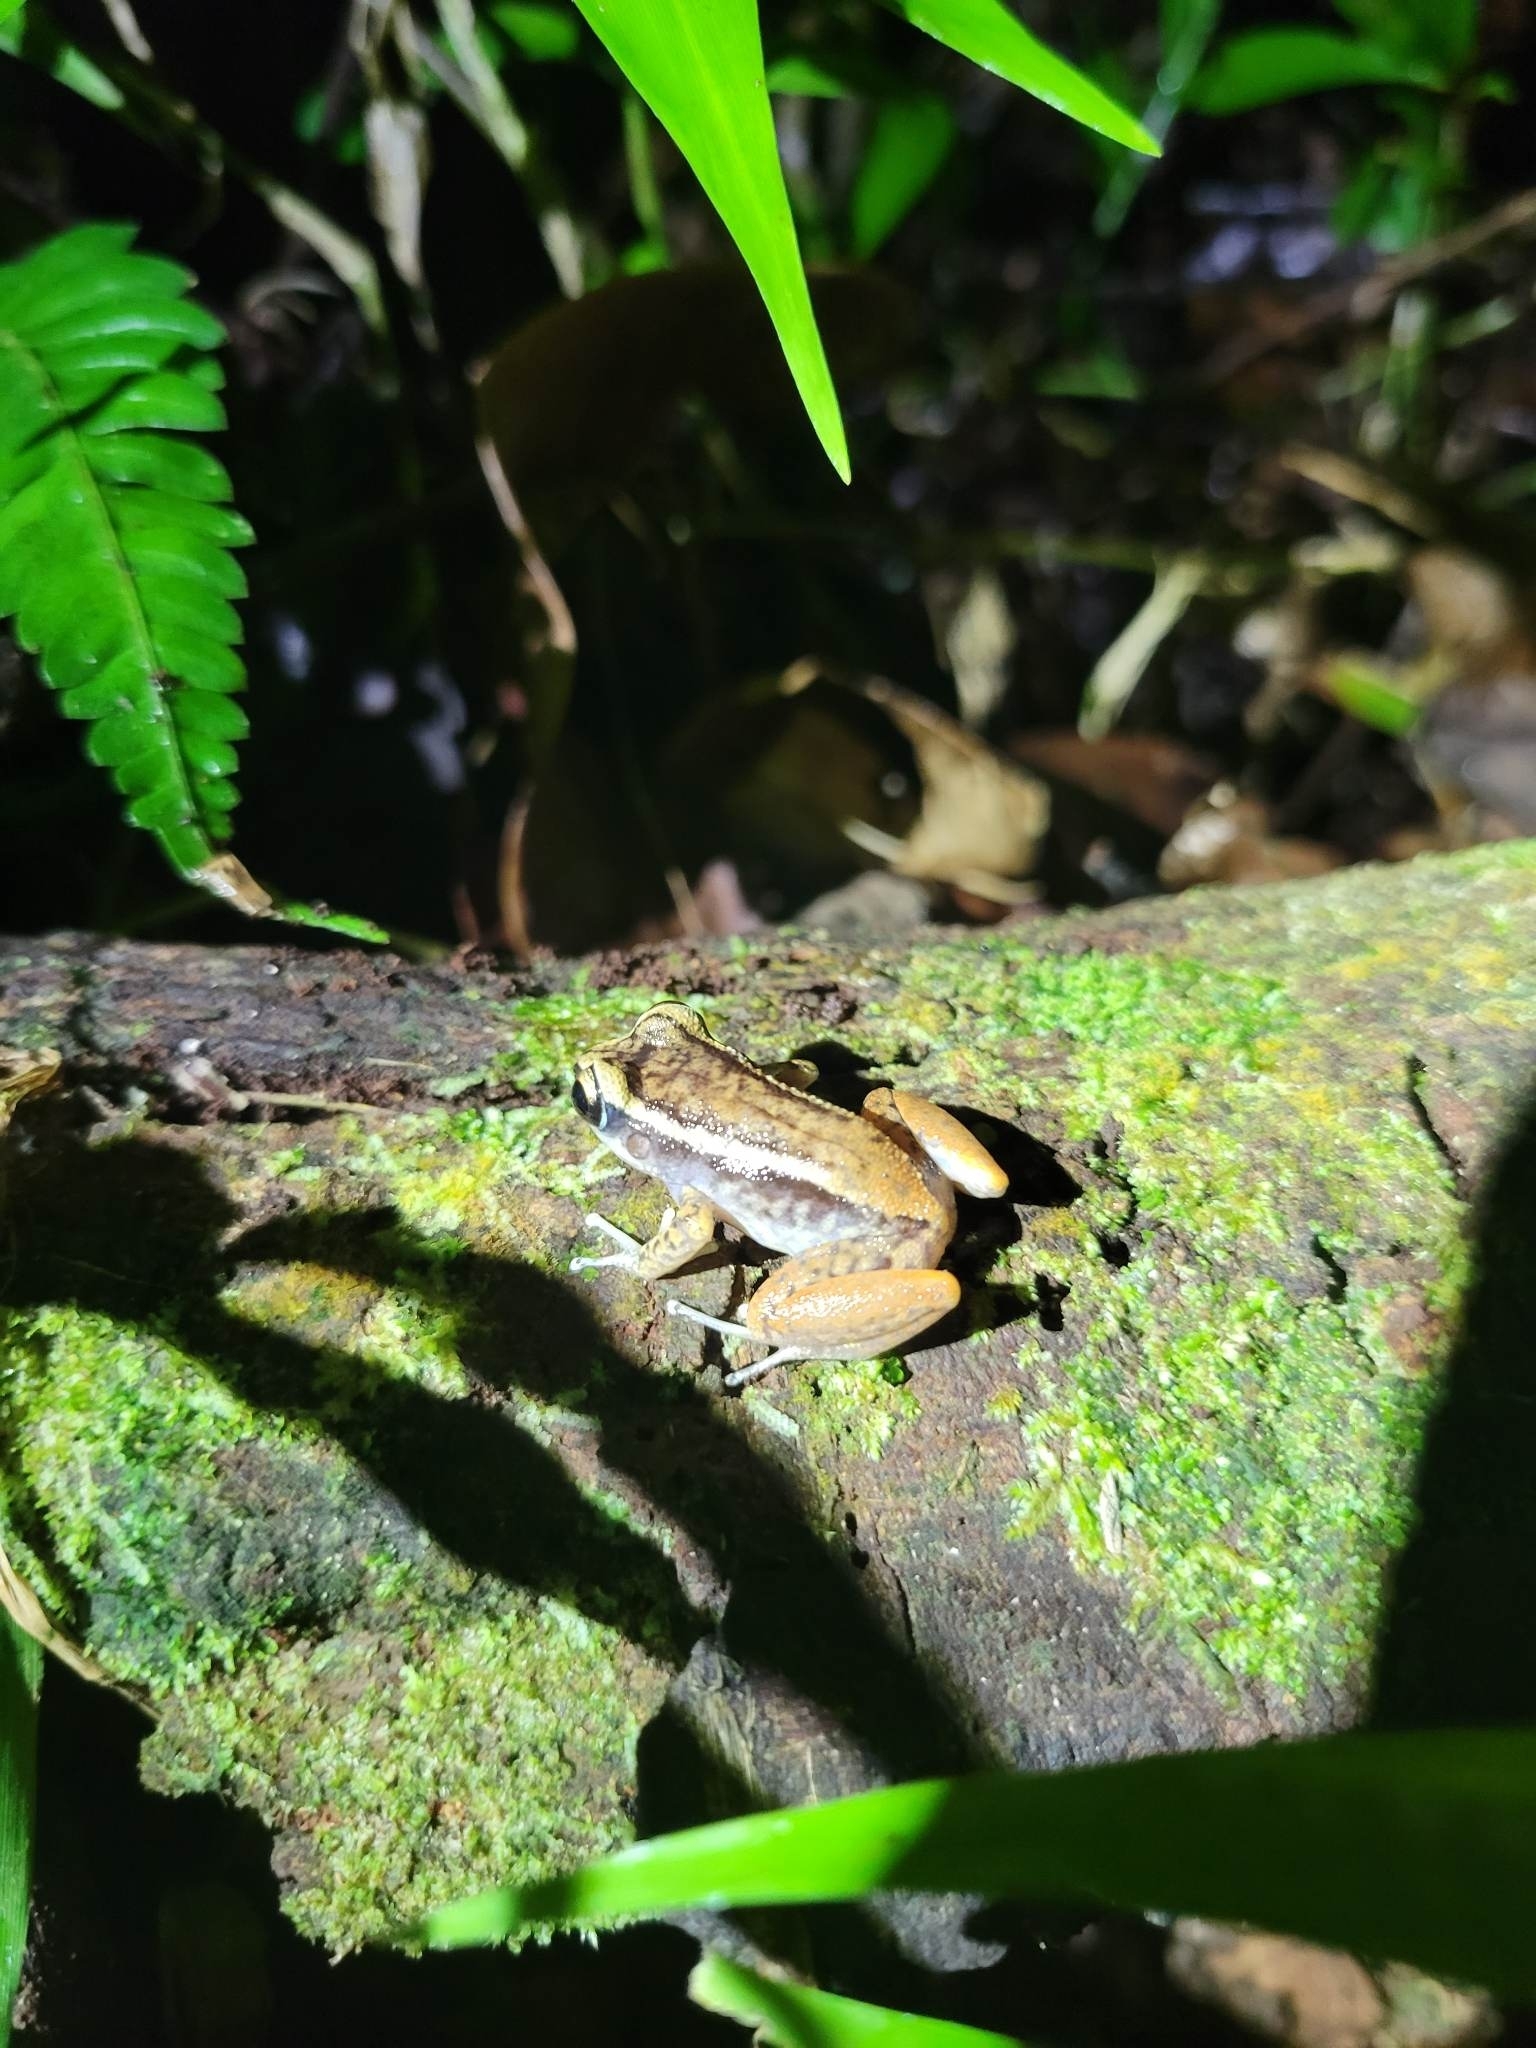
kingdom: Animalia
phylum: Chordata
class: Amphibia
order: Anura
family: Eleutherodactylidae
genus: Eleutherodactylus
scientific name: Eleutherodactylus richmondi
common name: Richmond's coqui
